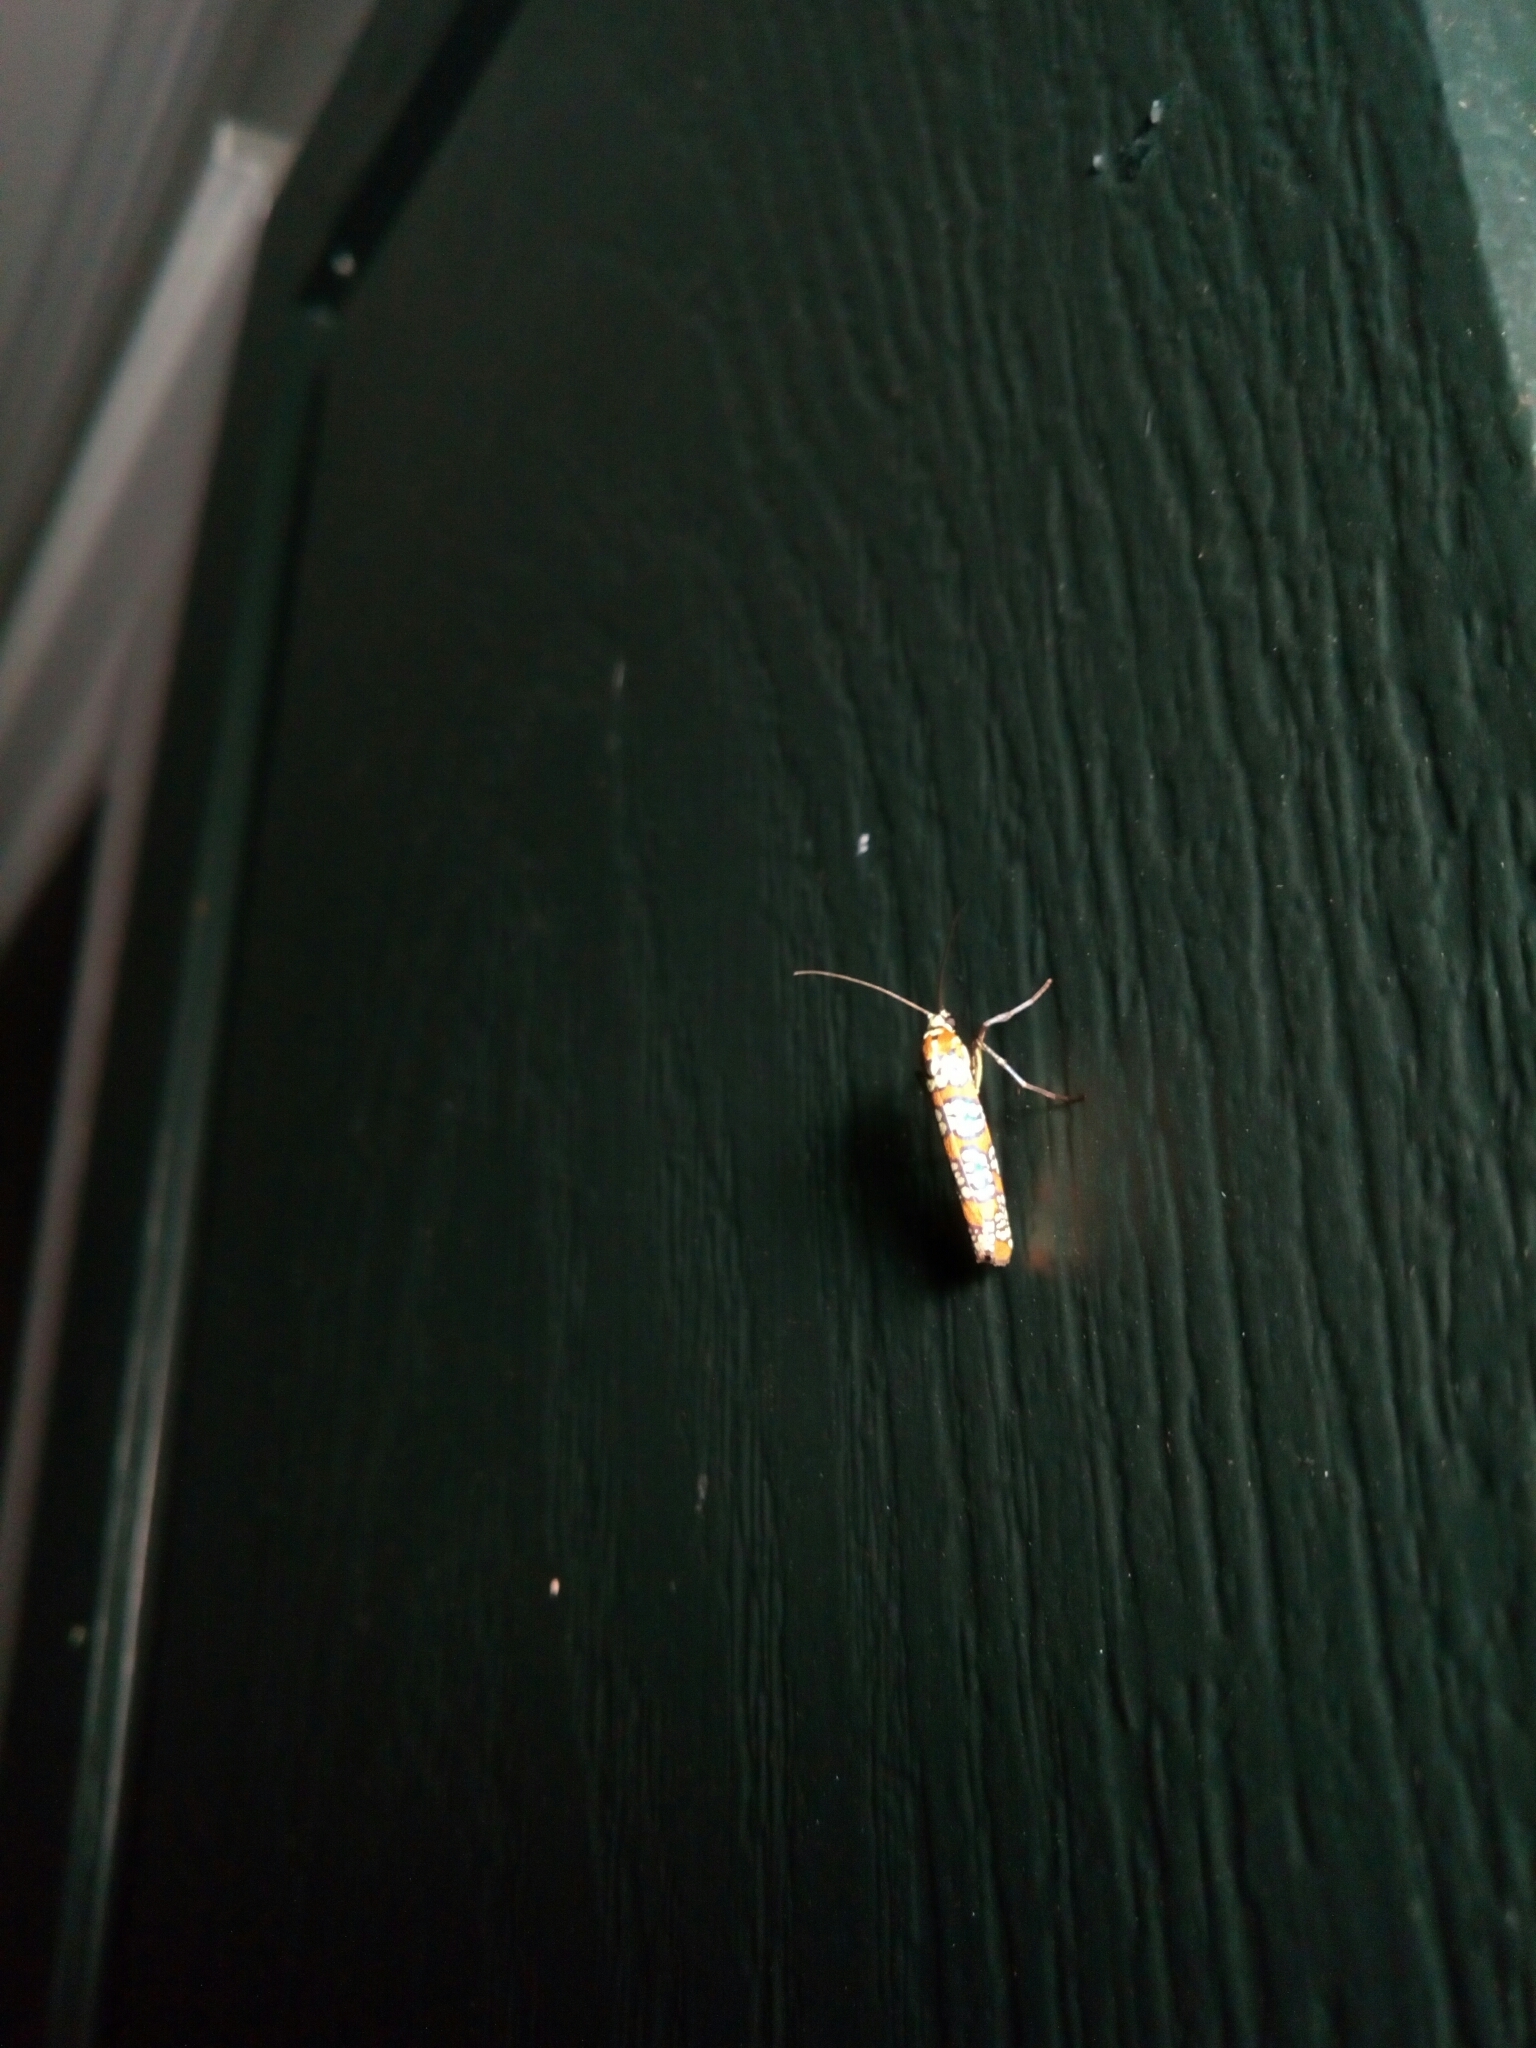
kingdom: Animalia
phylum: Arthropoda
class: Insecta
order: Lepidoptera
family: Attevidae
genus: Atteva
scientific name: Atteva punctella
